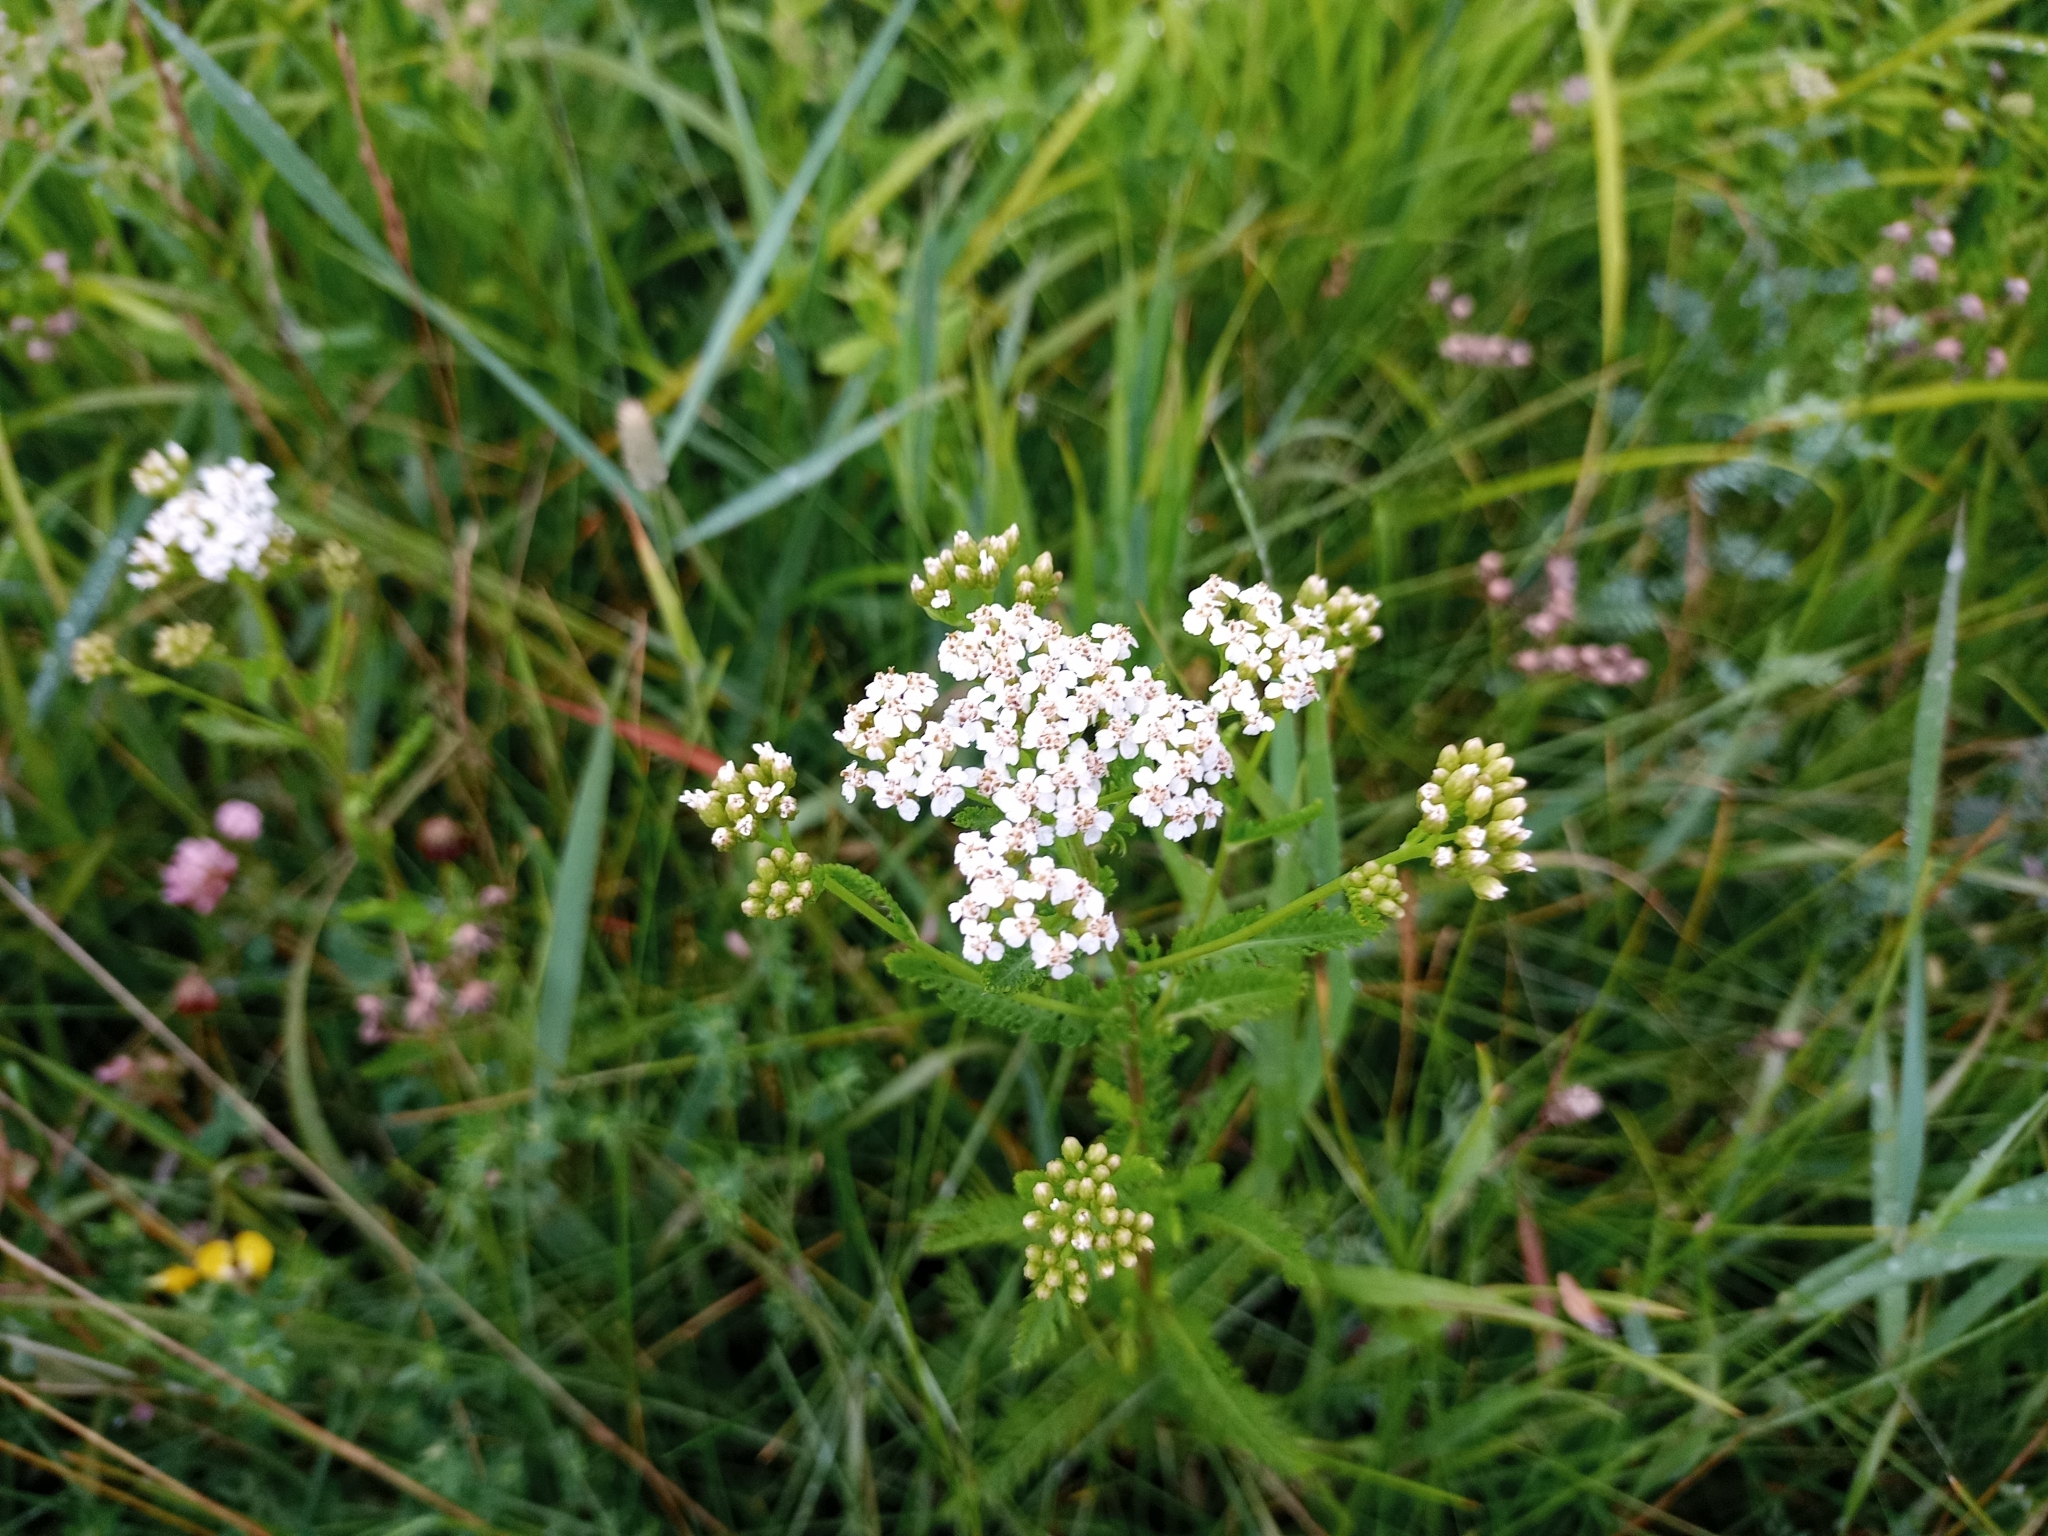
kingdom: Plantae
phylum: Tracheophyta
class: Magnoliopsida
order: Asterales
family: Asteraceae
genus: Achillea
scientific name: Achillea millefolium
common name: Yarrow
